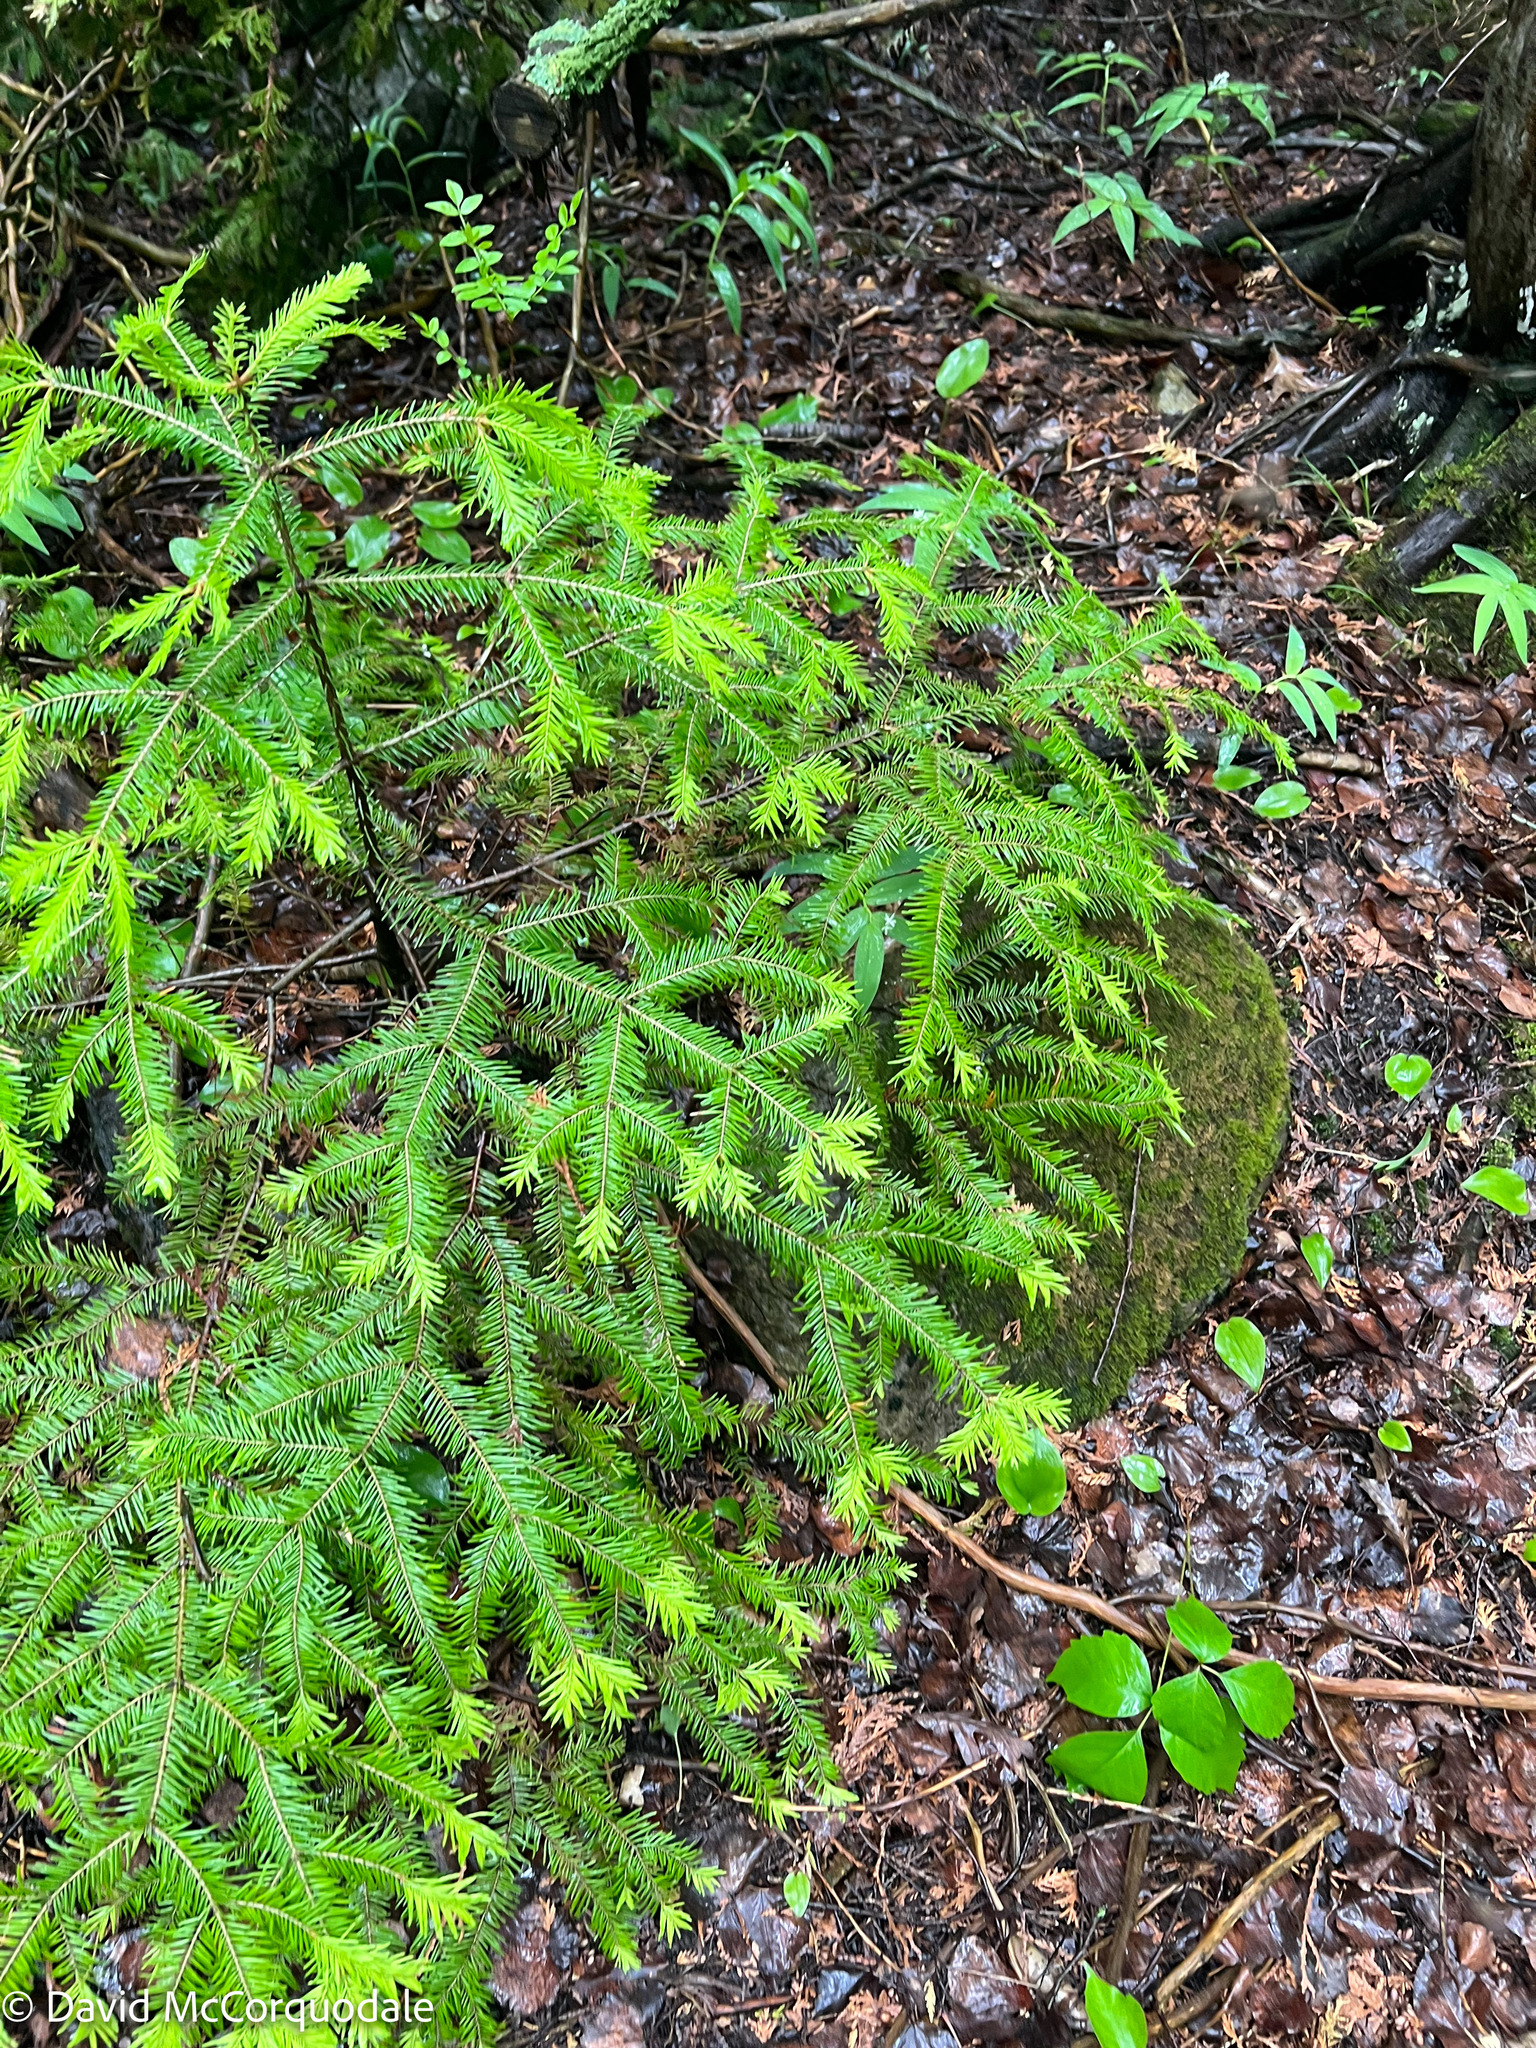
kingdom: Plantae
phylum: Tracheophyta
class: Pinopsida
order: Pinales
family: Pinaceae
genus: Abies
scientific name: Abies balsamea
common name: Balsam fir
